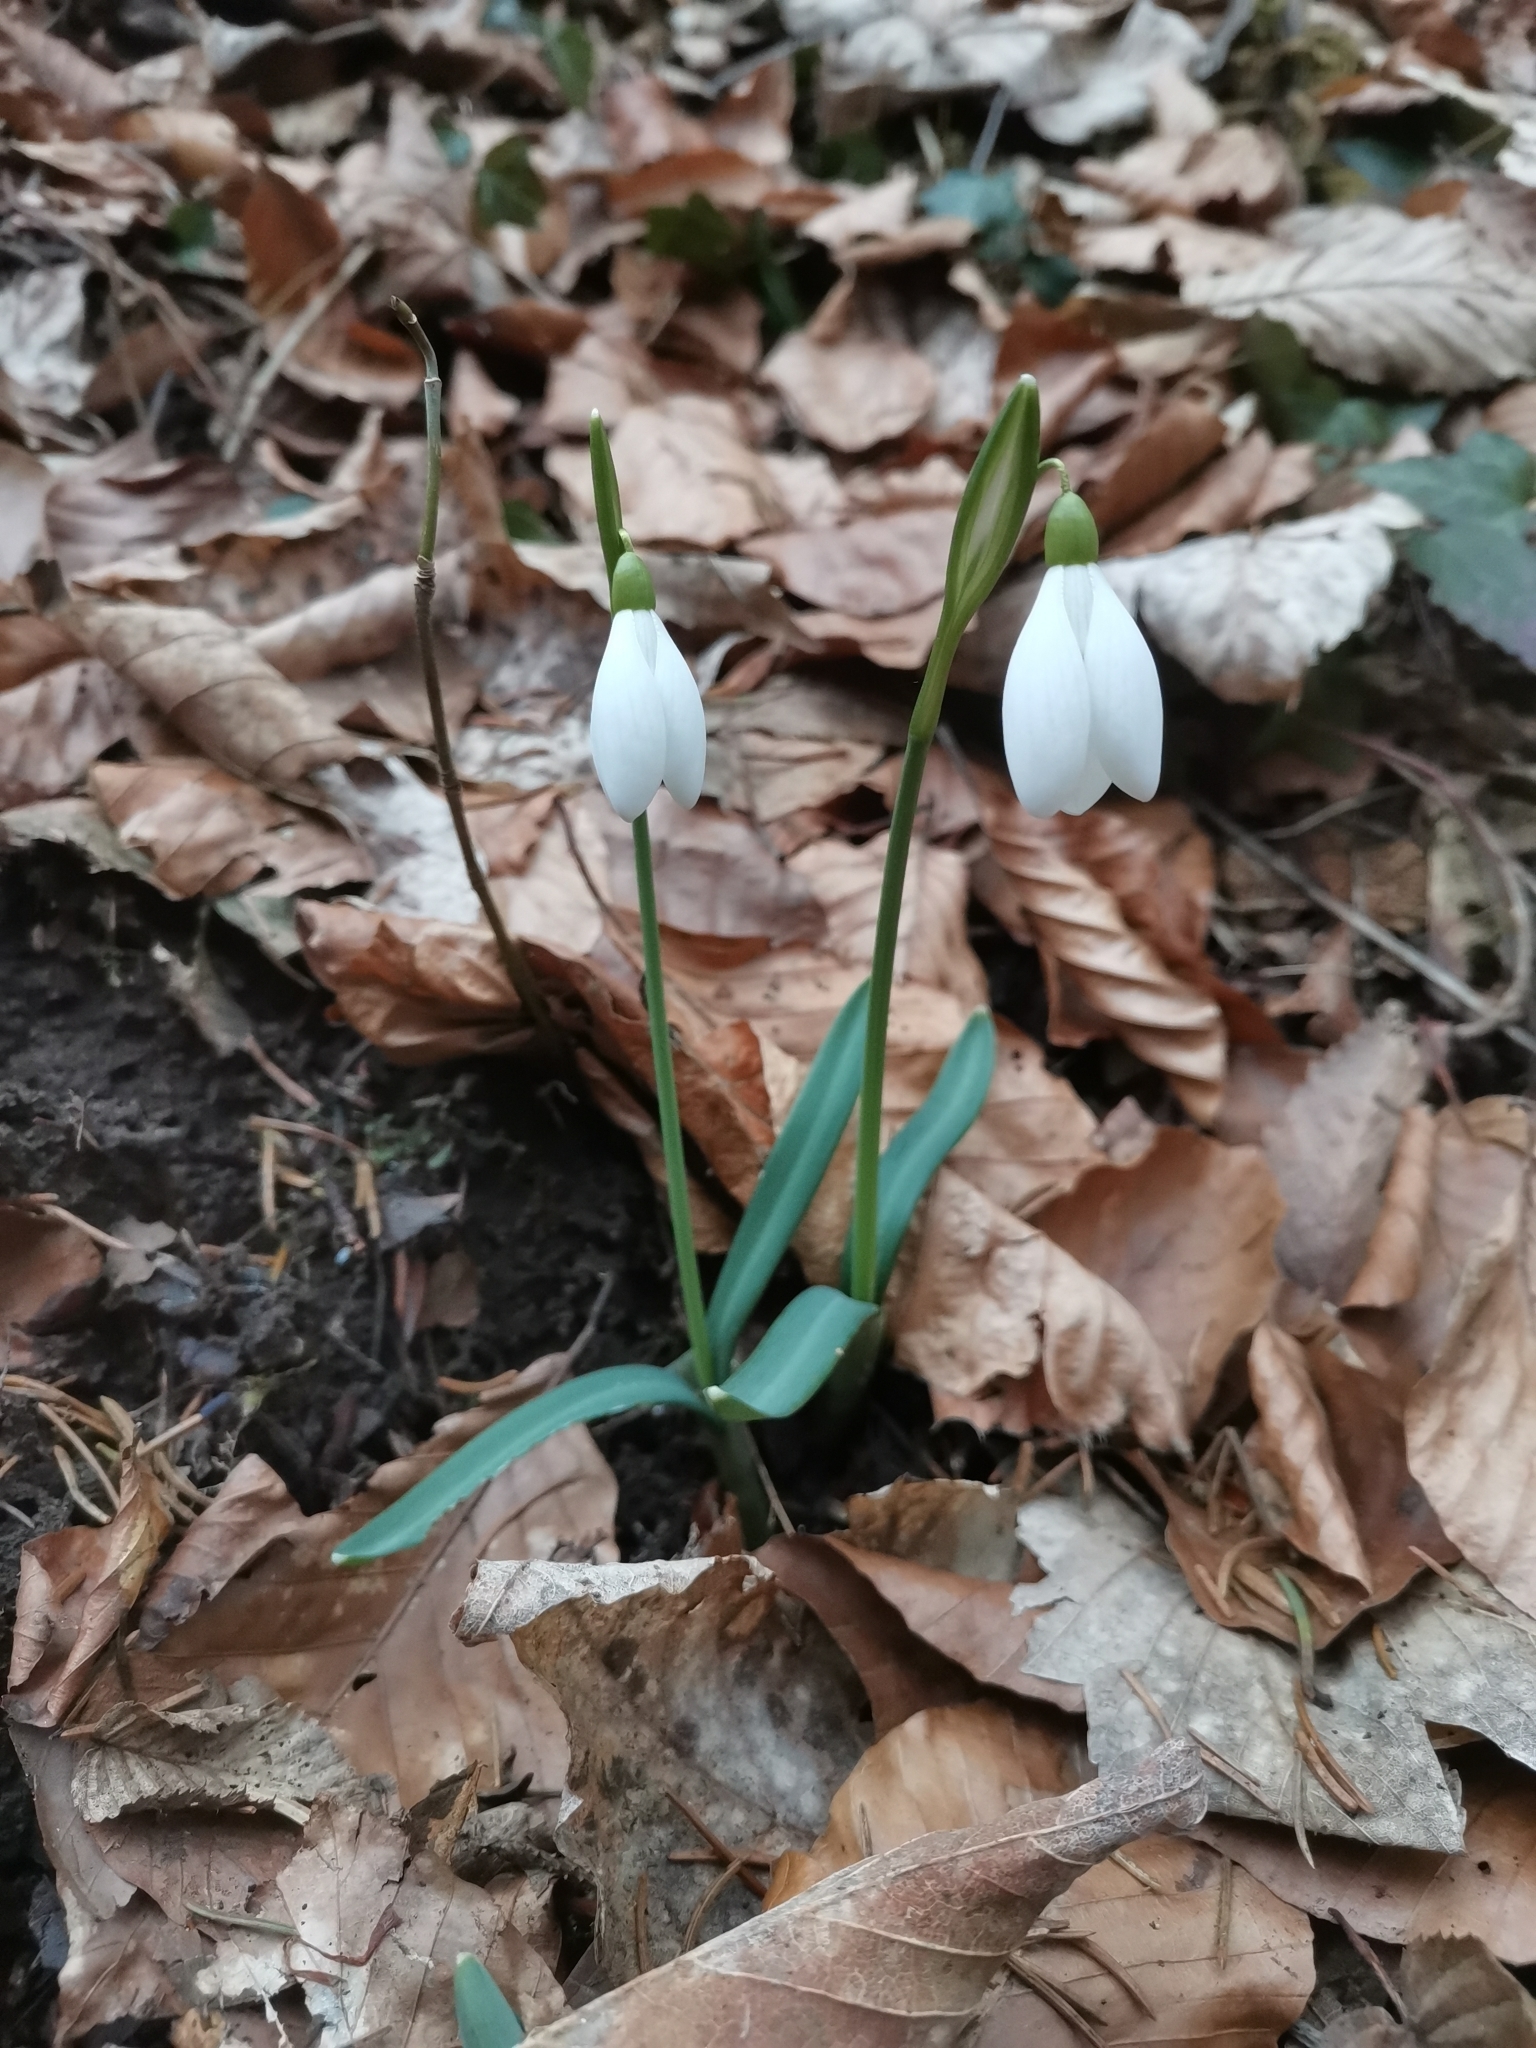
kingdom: Plantae
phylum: Tracheophyta
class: Liliopsida
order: Asparagales
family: Amaryllidaceae
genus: Galanthus
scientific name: Galanthus nivalis
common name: Snowdrop
